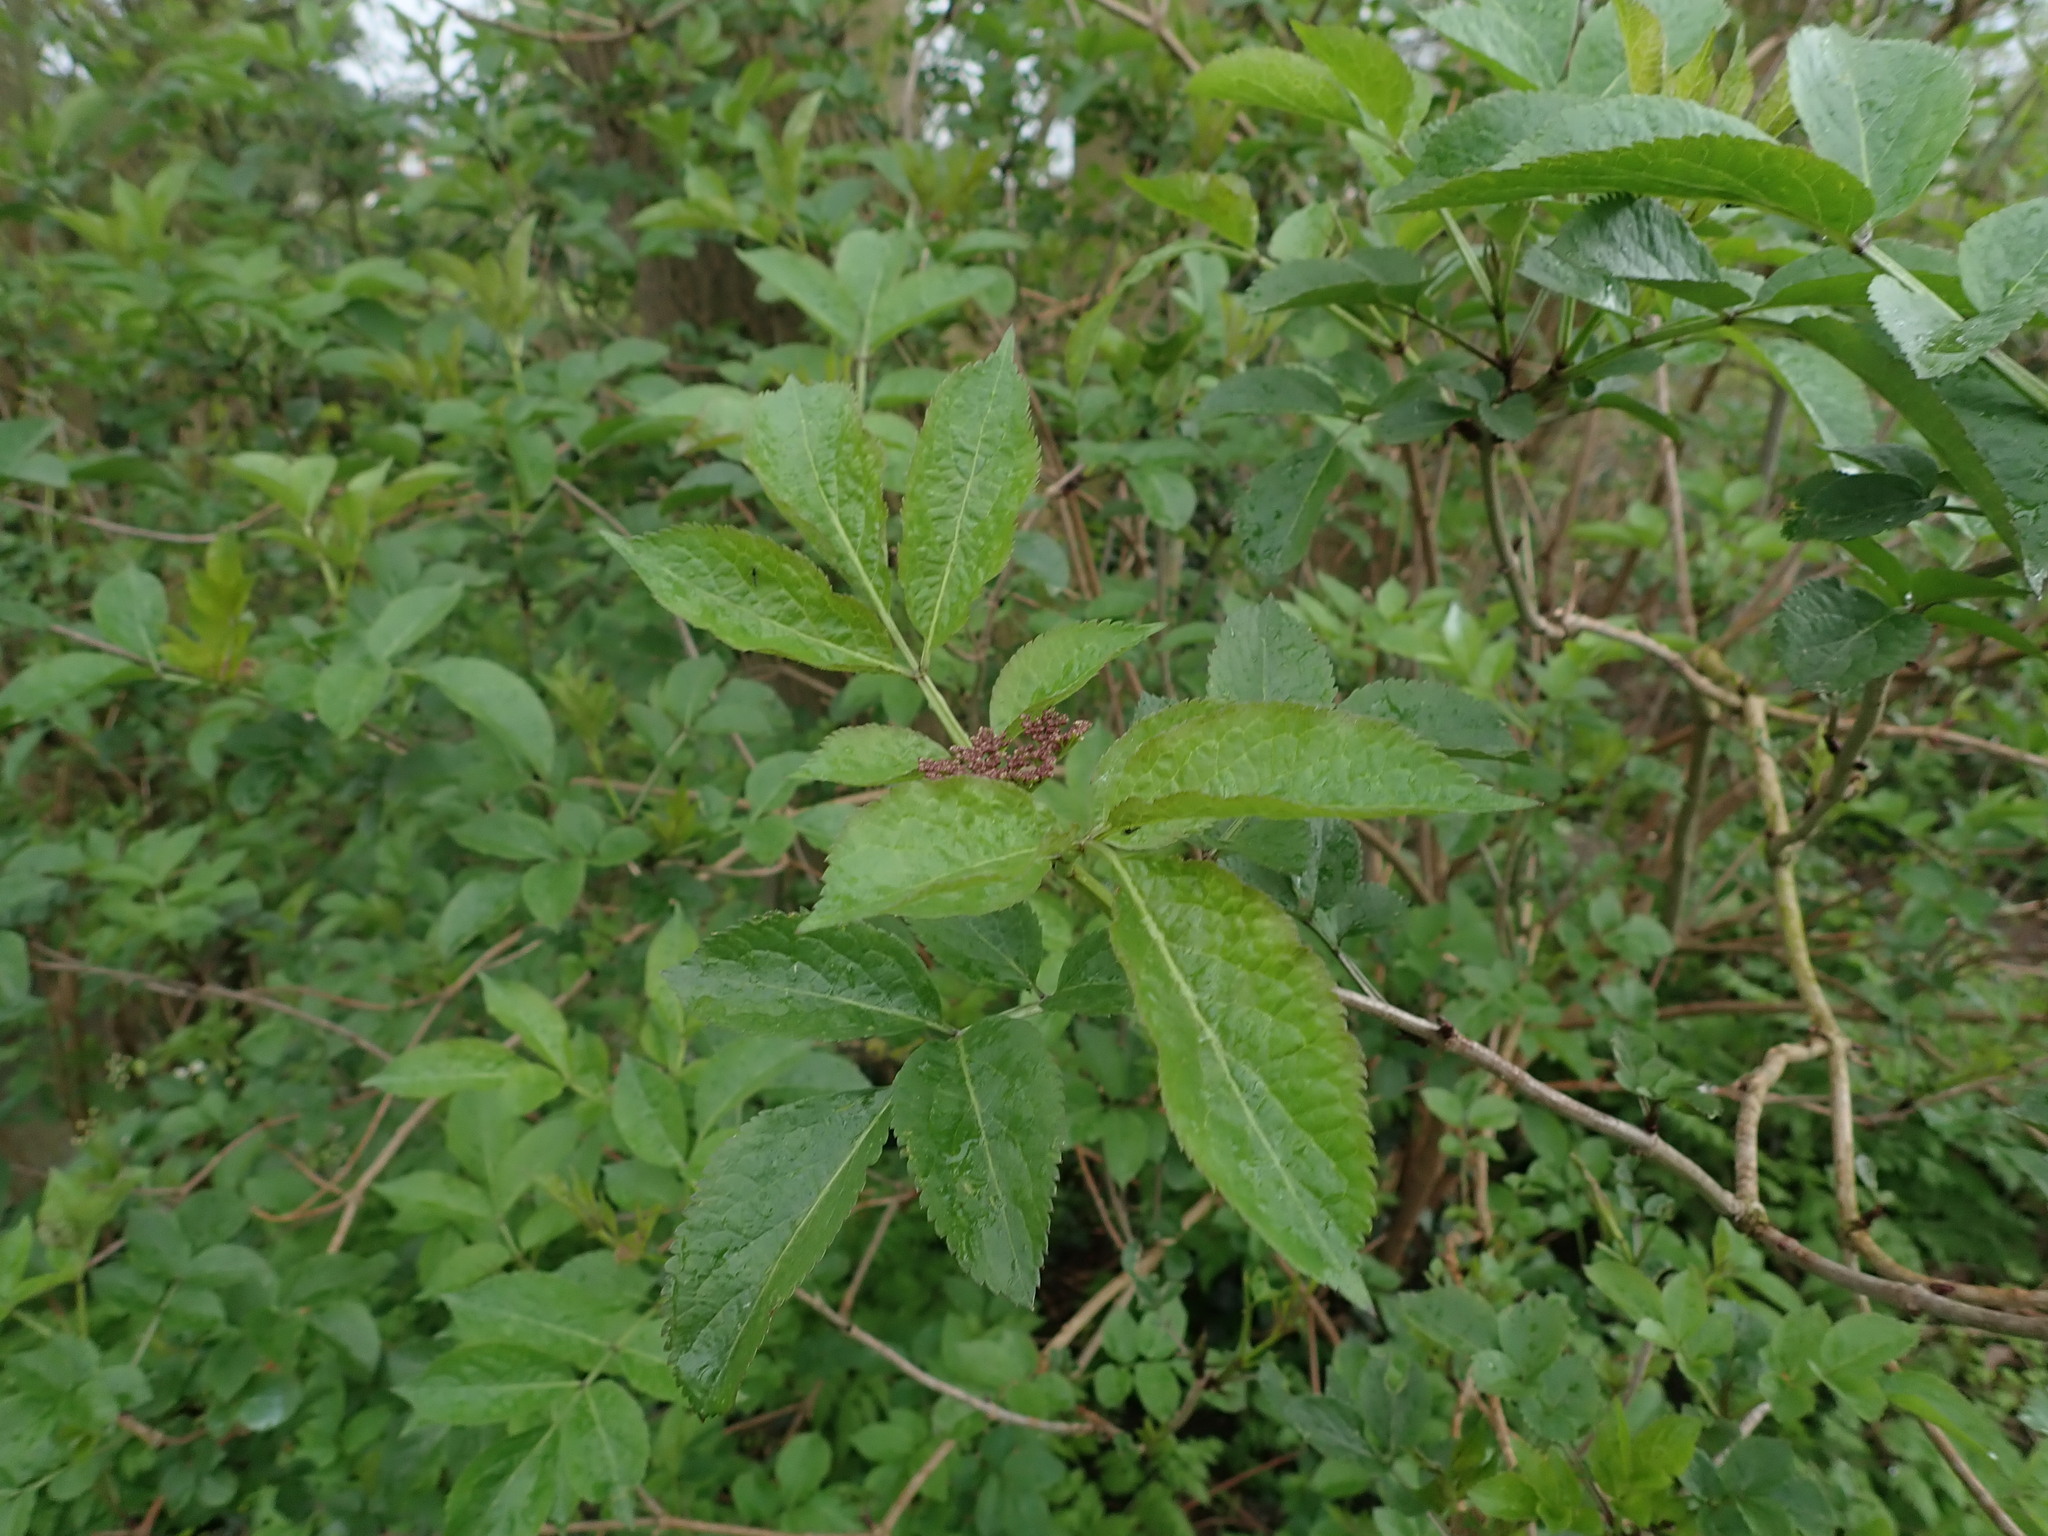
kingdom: Plantae
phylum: Tracheophyta
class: Magnoliopsida
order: Dipsacales
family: Viburnaceae
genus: Sambucus
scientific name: Sambucus nigra
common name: Elder
